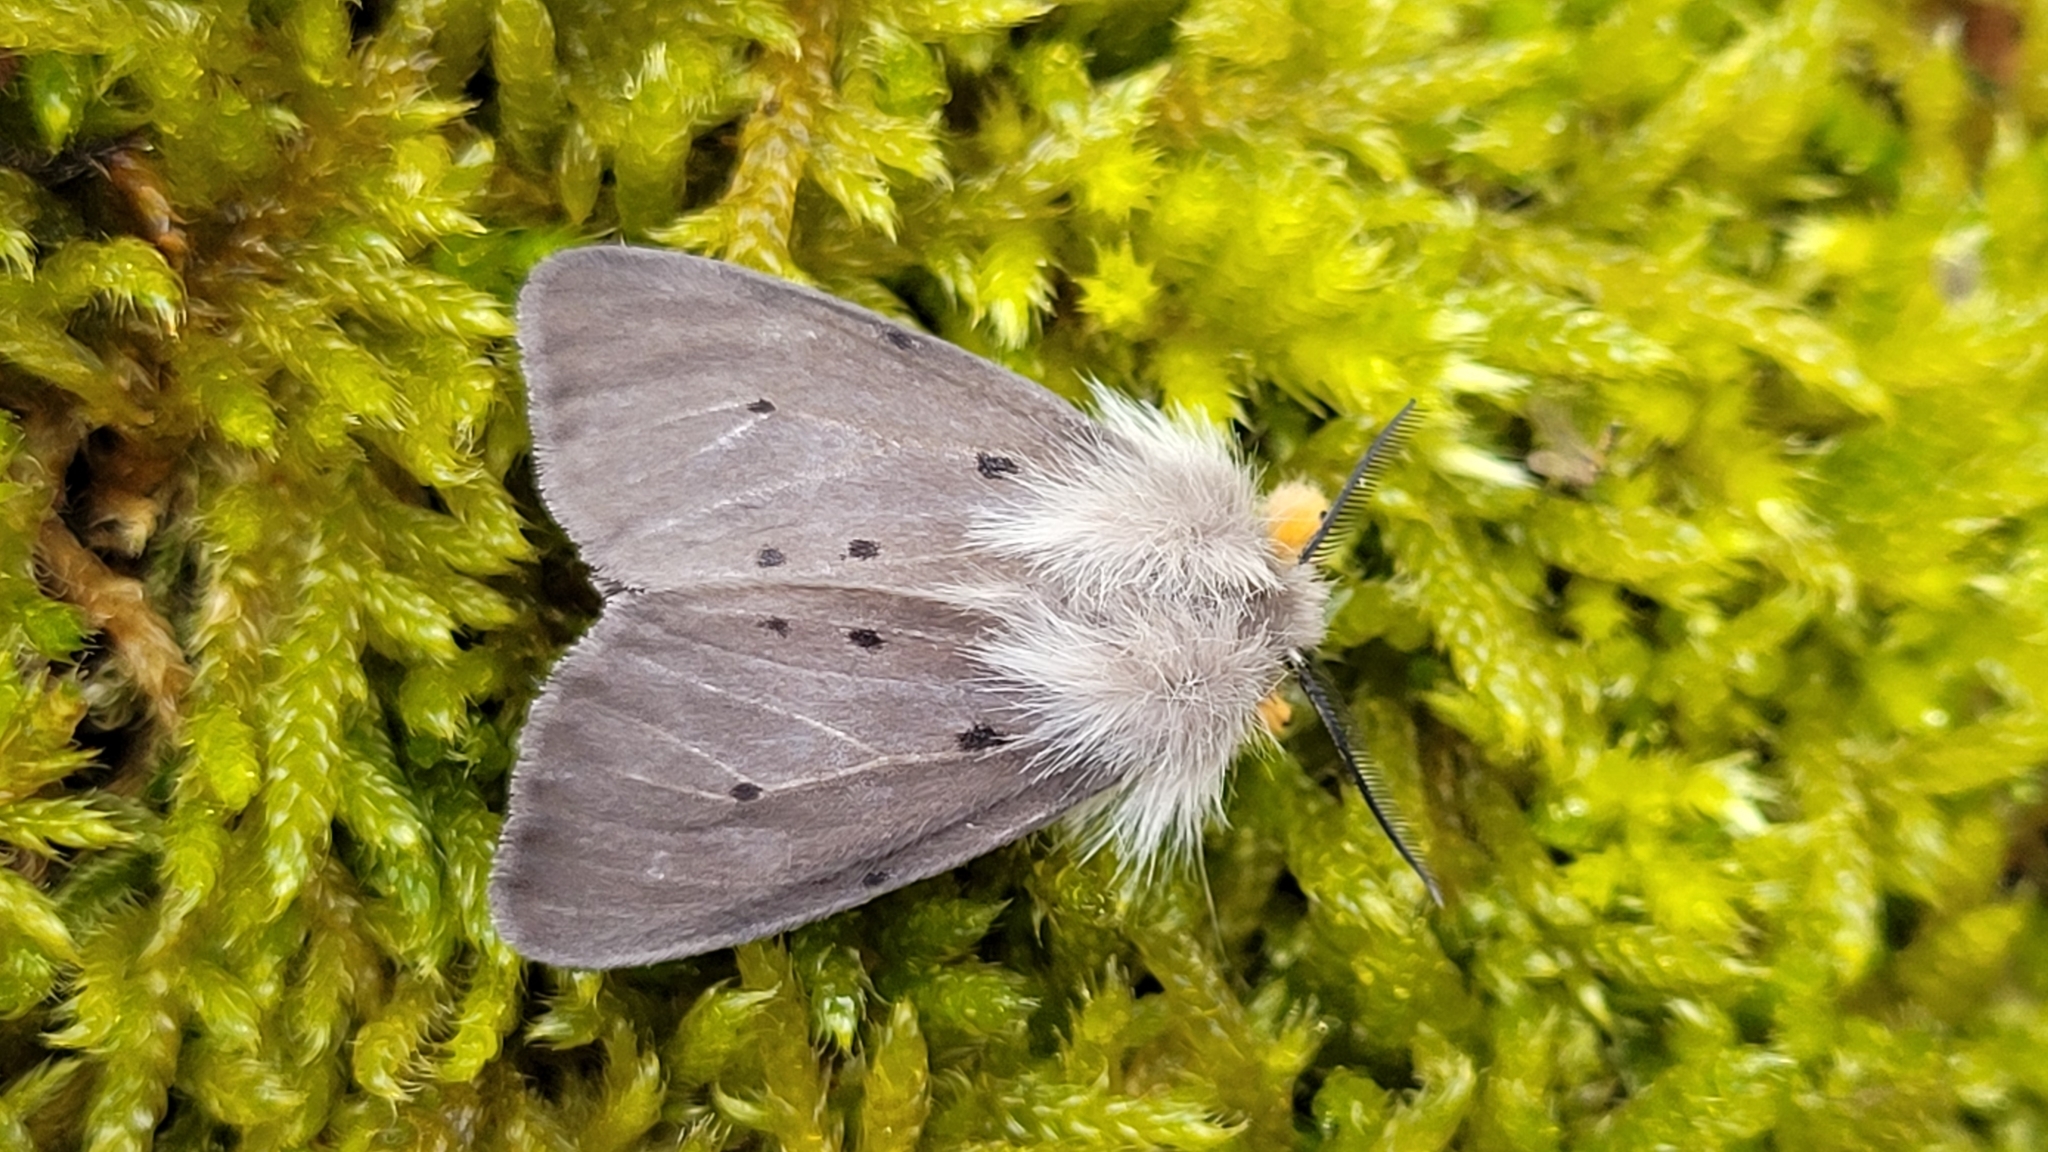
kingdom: Animalia
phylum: Arthropoda
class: Insecta
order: Lepidoptera
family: Erebidae
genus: Diaphora
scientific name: Diaphora mendica
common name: Muslin moth
